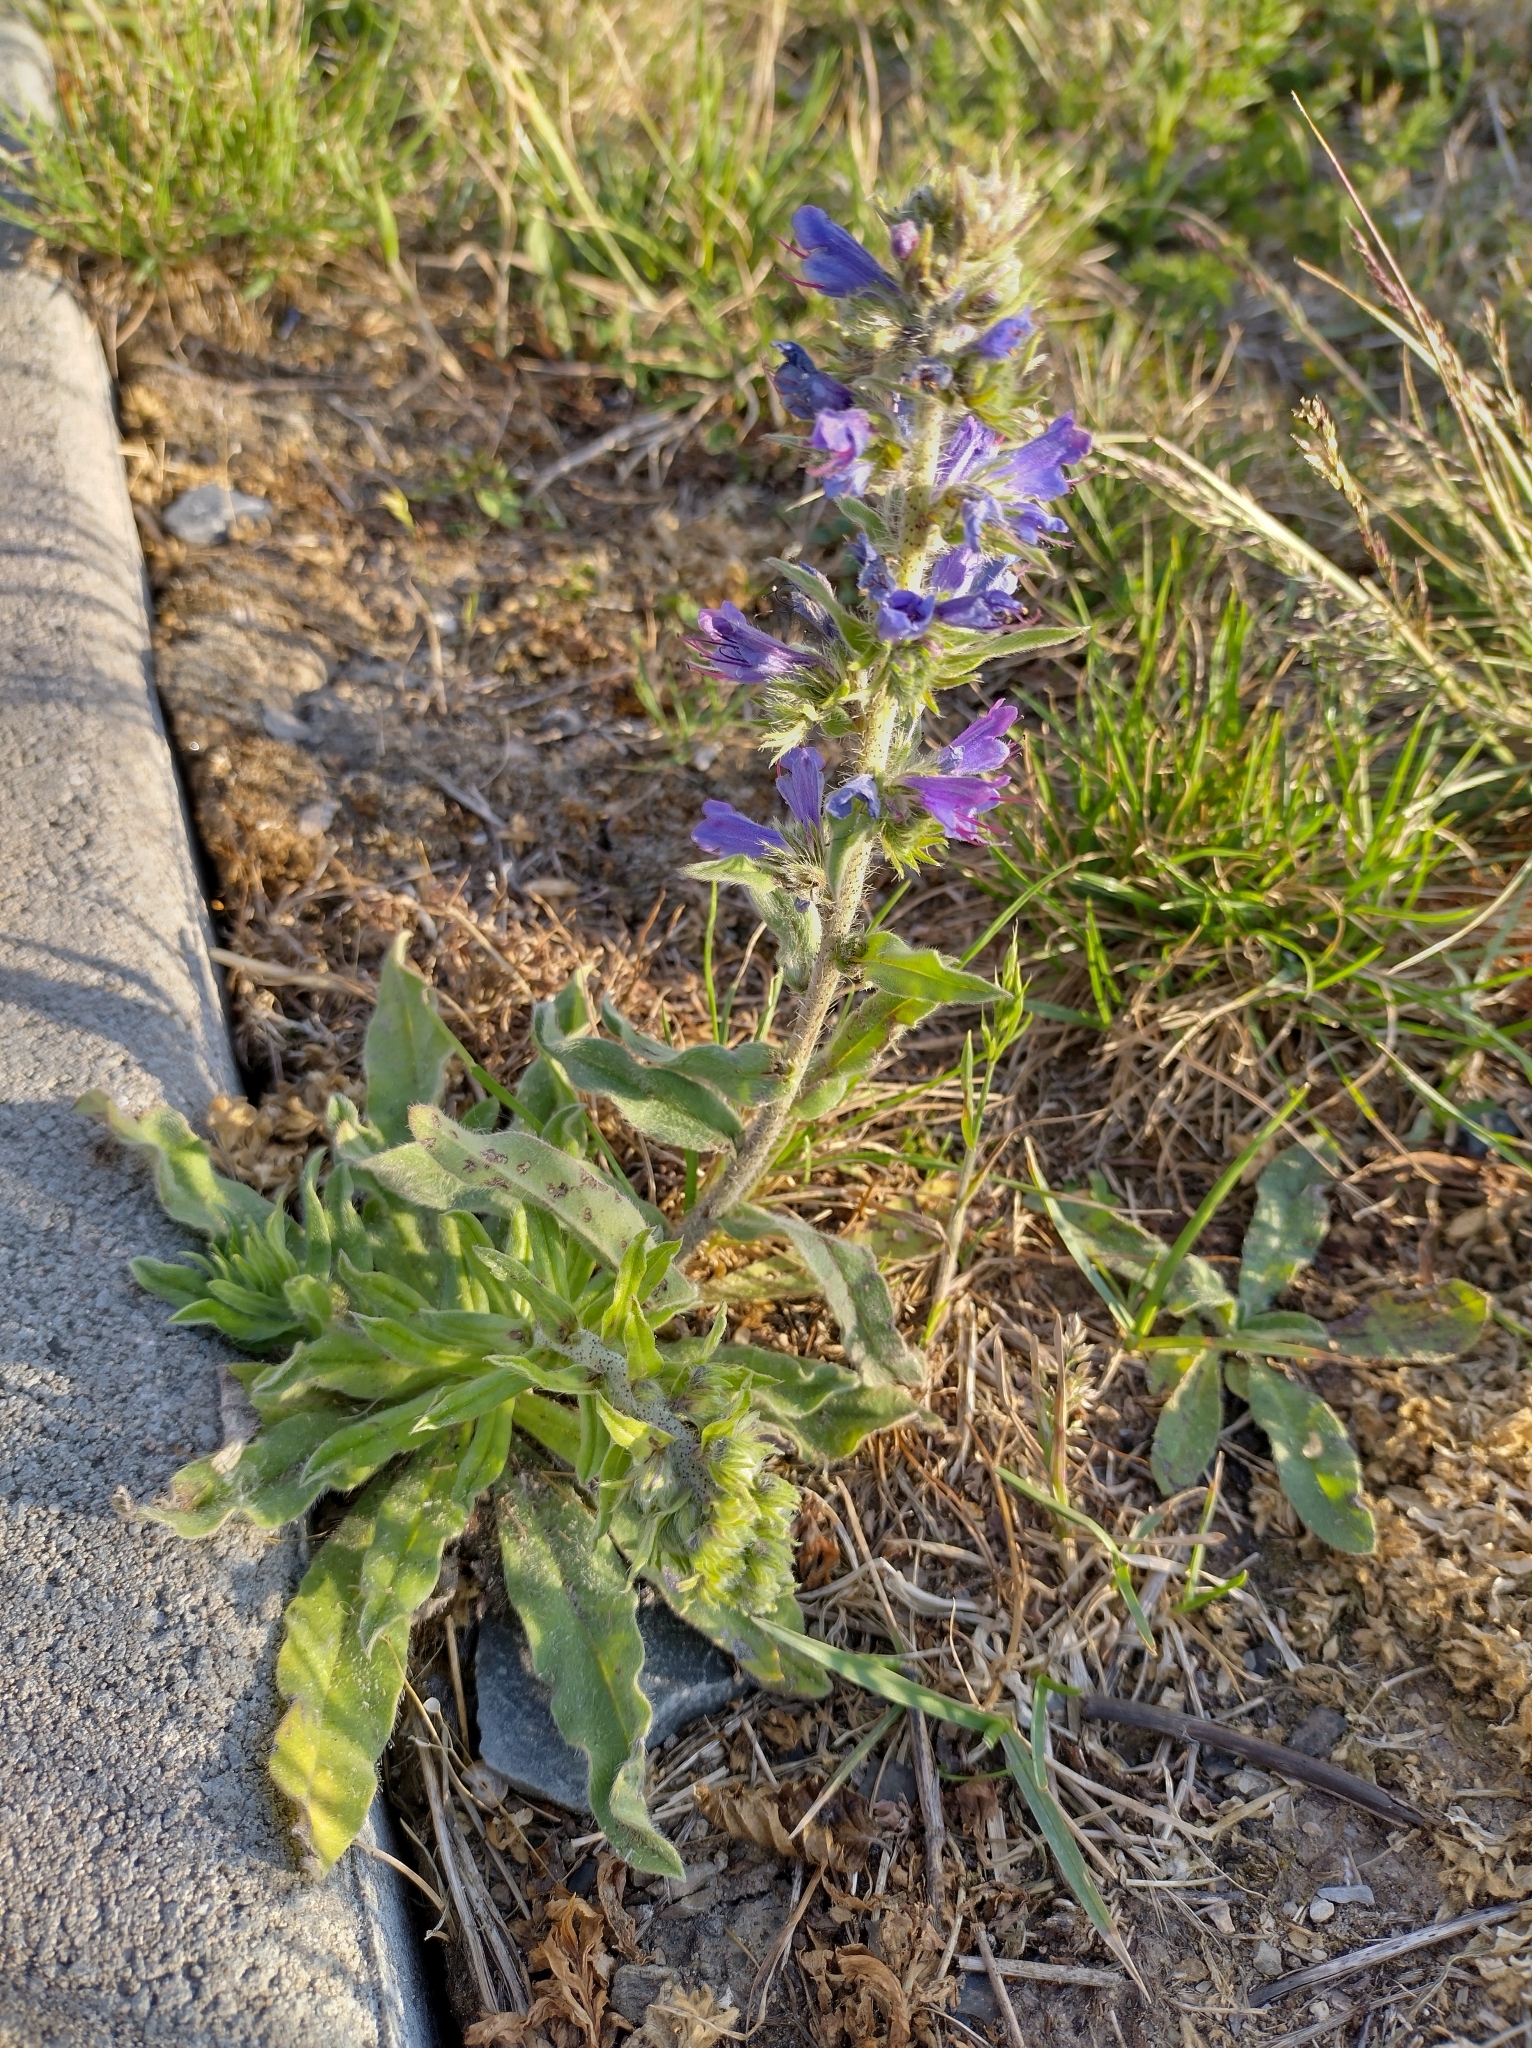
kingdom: Plantae
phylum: Tracheophyta
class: Magnoliopsida
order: Boraginales
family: Boraginaceae
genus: Echium
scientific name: Echium vulgare
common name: Common viper's bugloss
